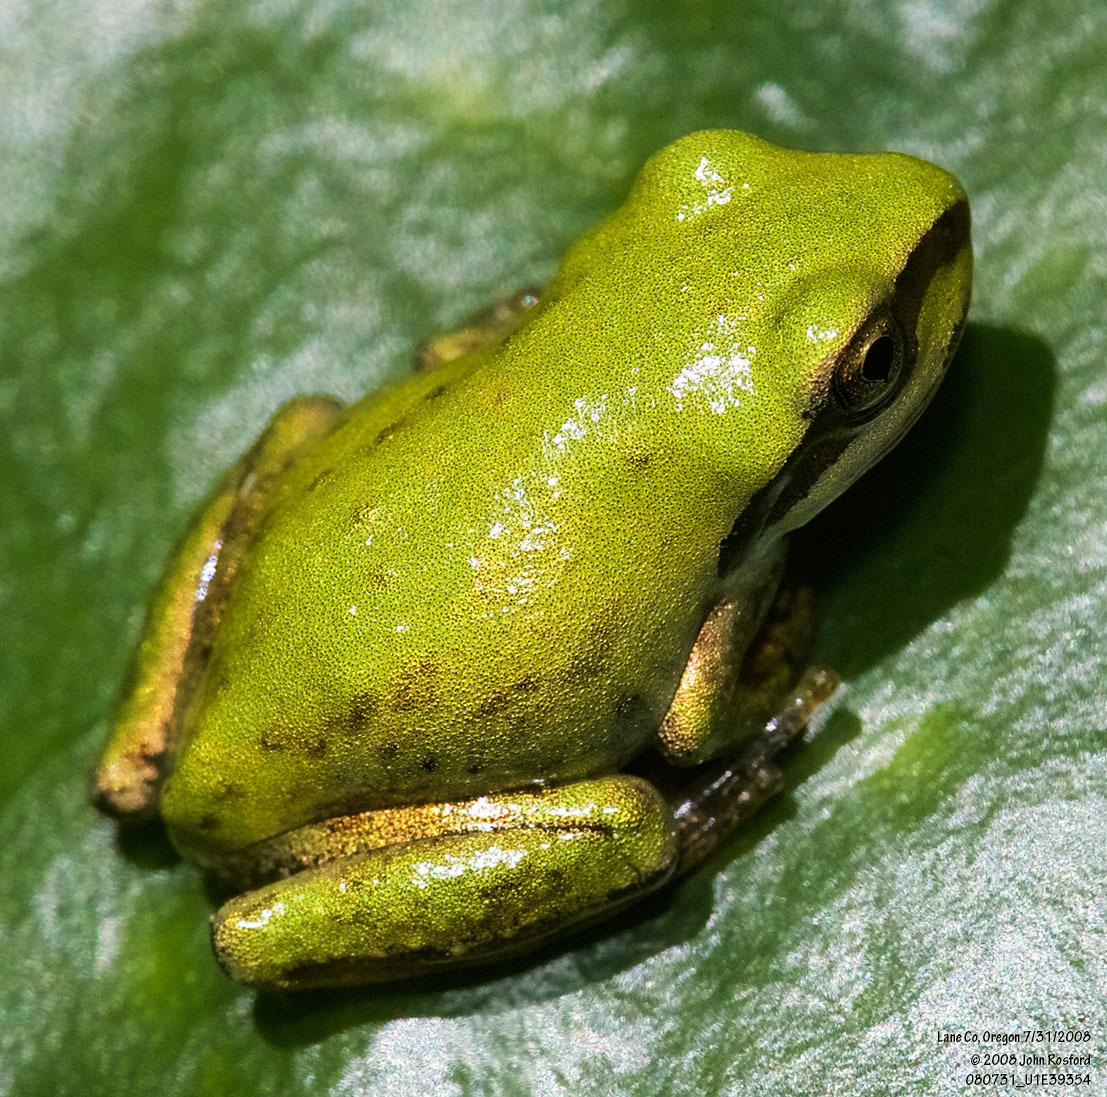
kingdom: Animalia
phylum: Chordata
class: Amphibia
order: Anura
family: Hylidae
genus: Pseudacris
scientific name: Pseudacris regilla
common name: Pacific chorus frog
